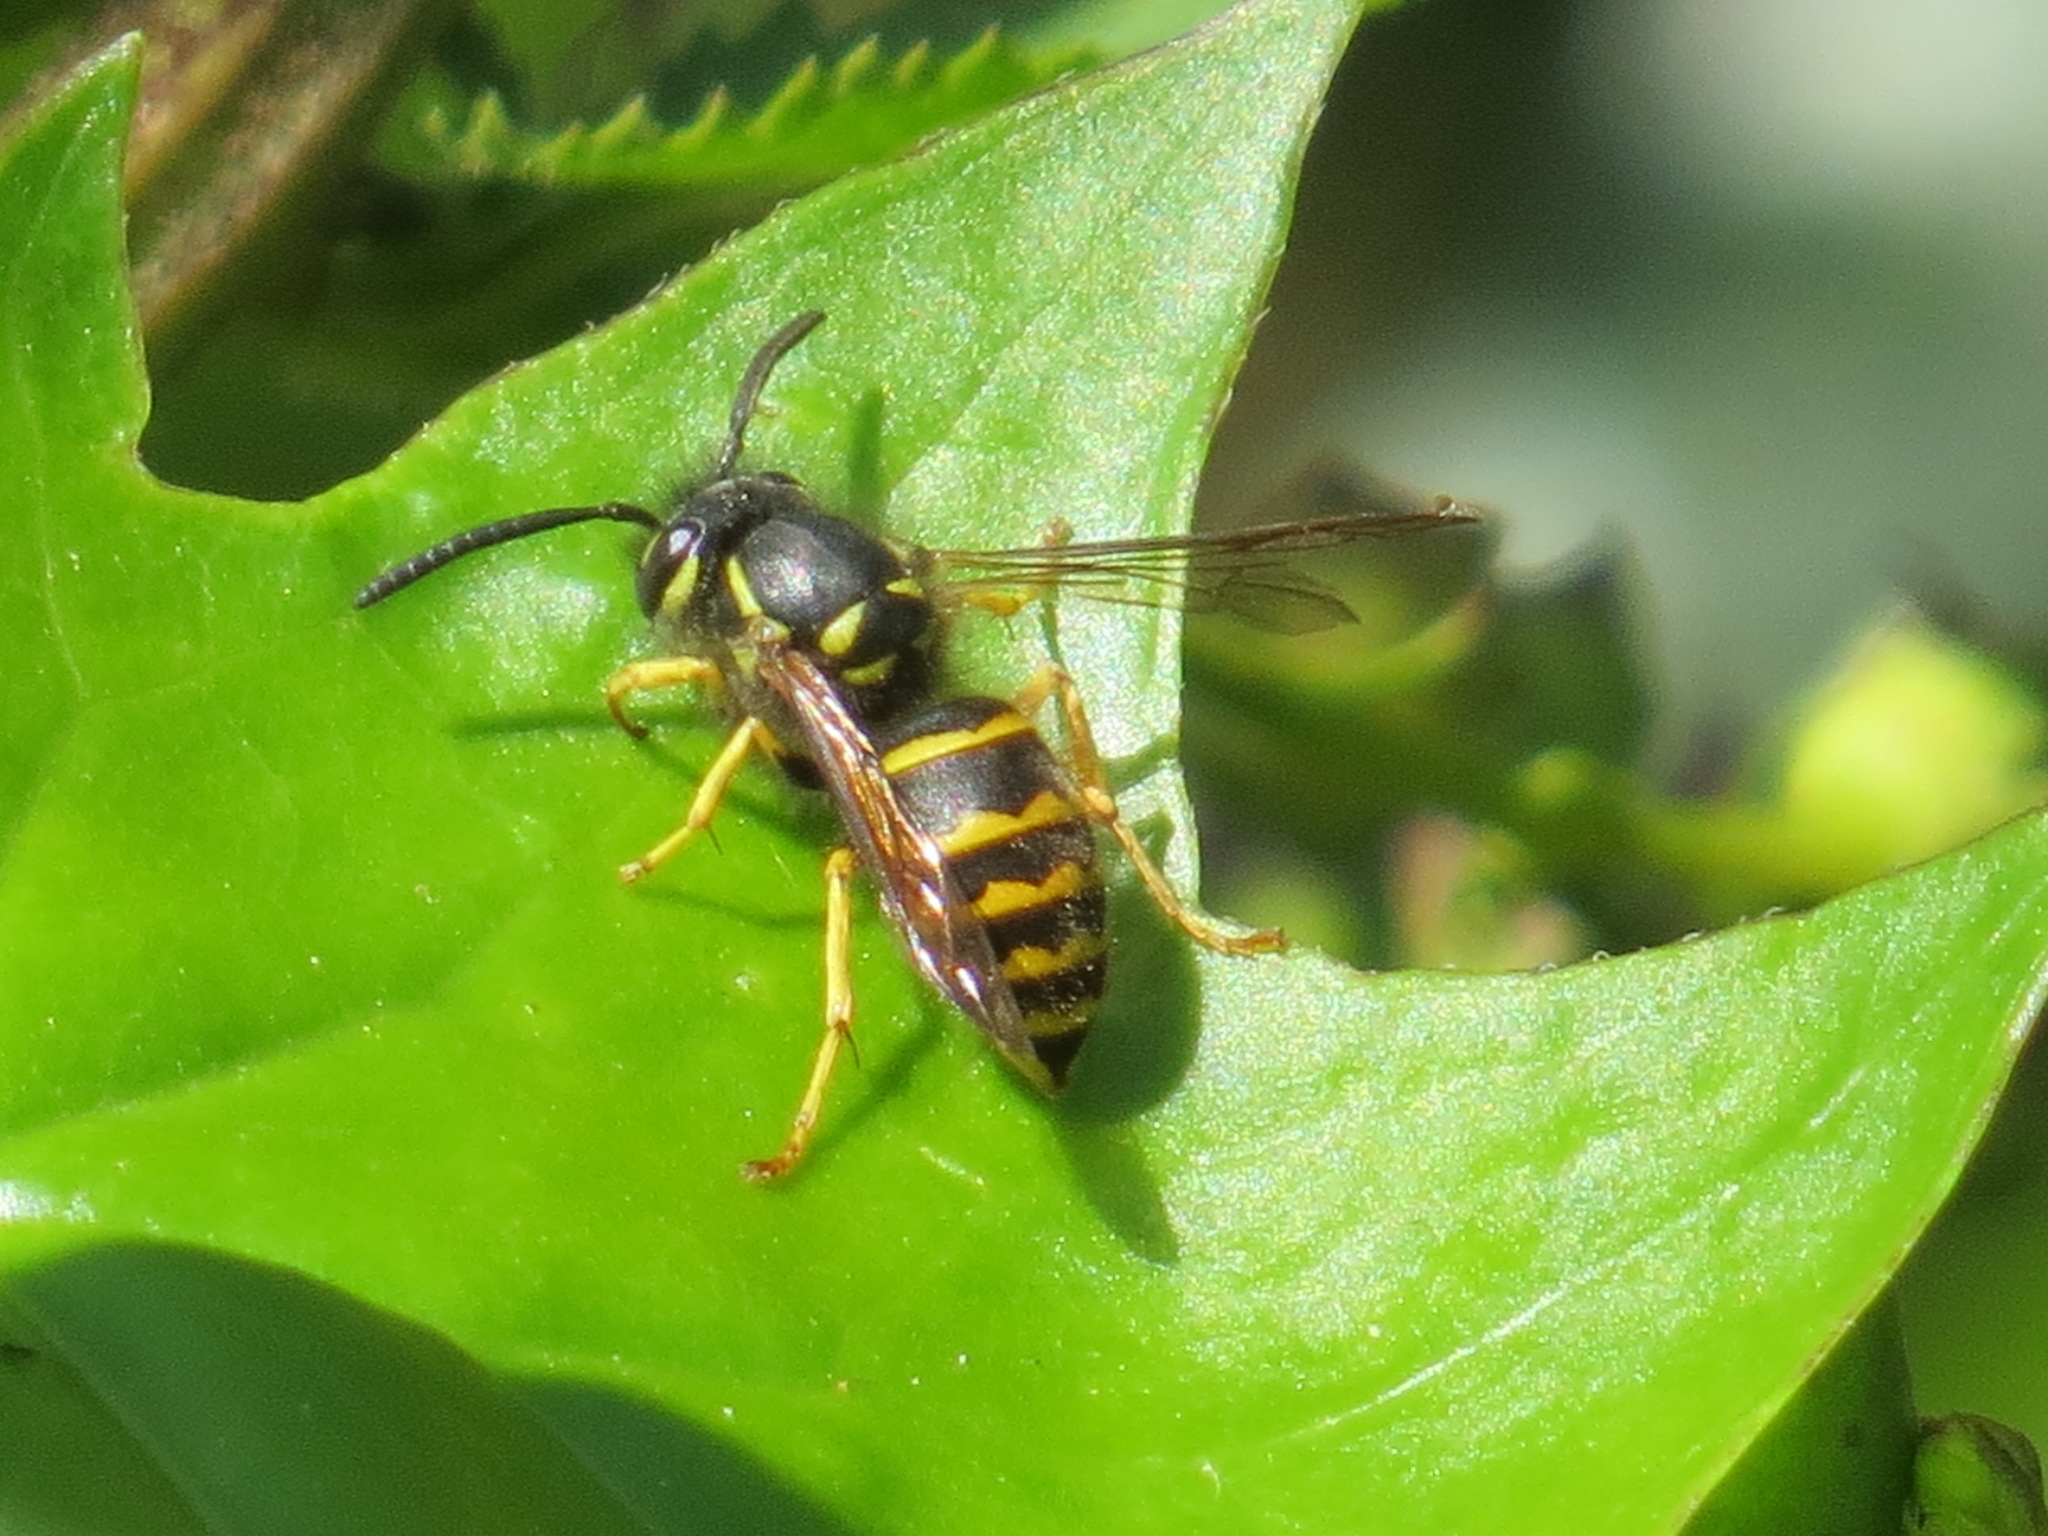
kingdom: Animalia
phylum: Arthropoda
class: Insecta
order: Hymenoptera
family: Vespidae
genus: Vespula
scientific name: Vespula alascensis
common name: Alaska yellowjacket
